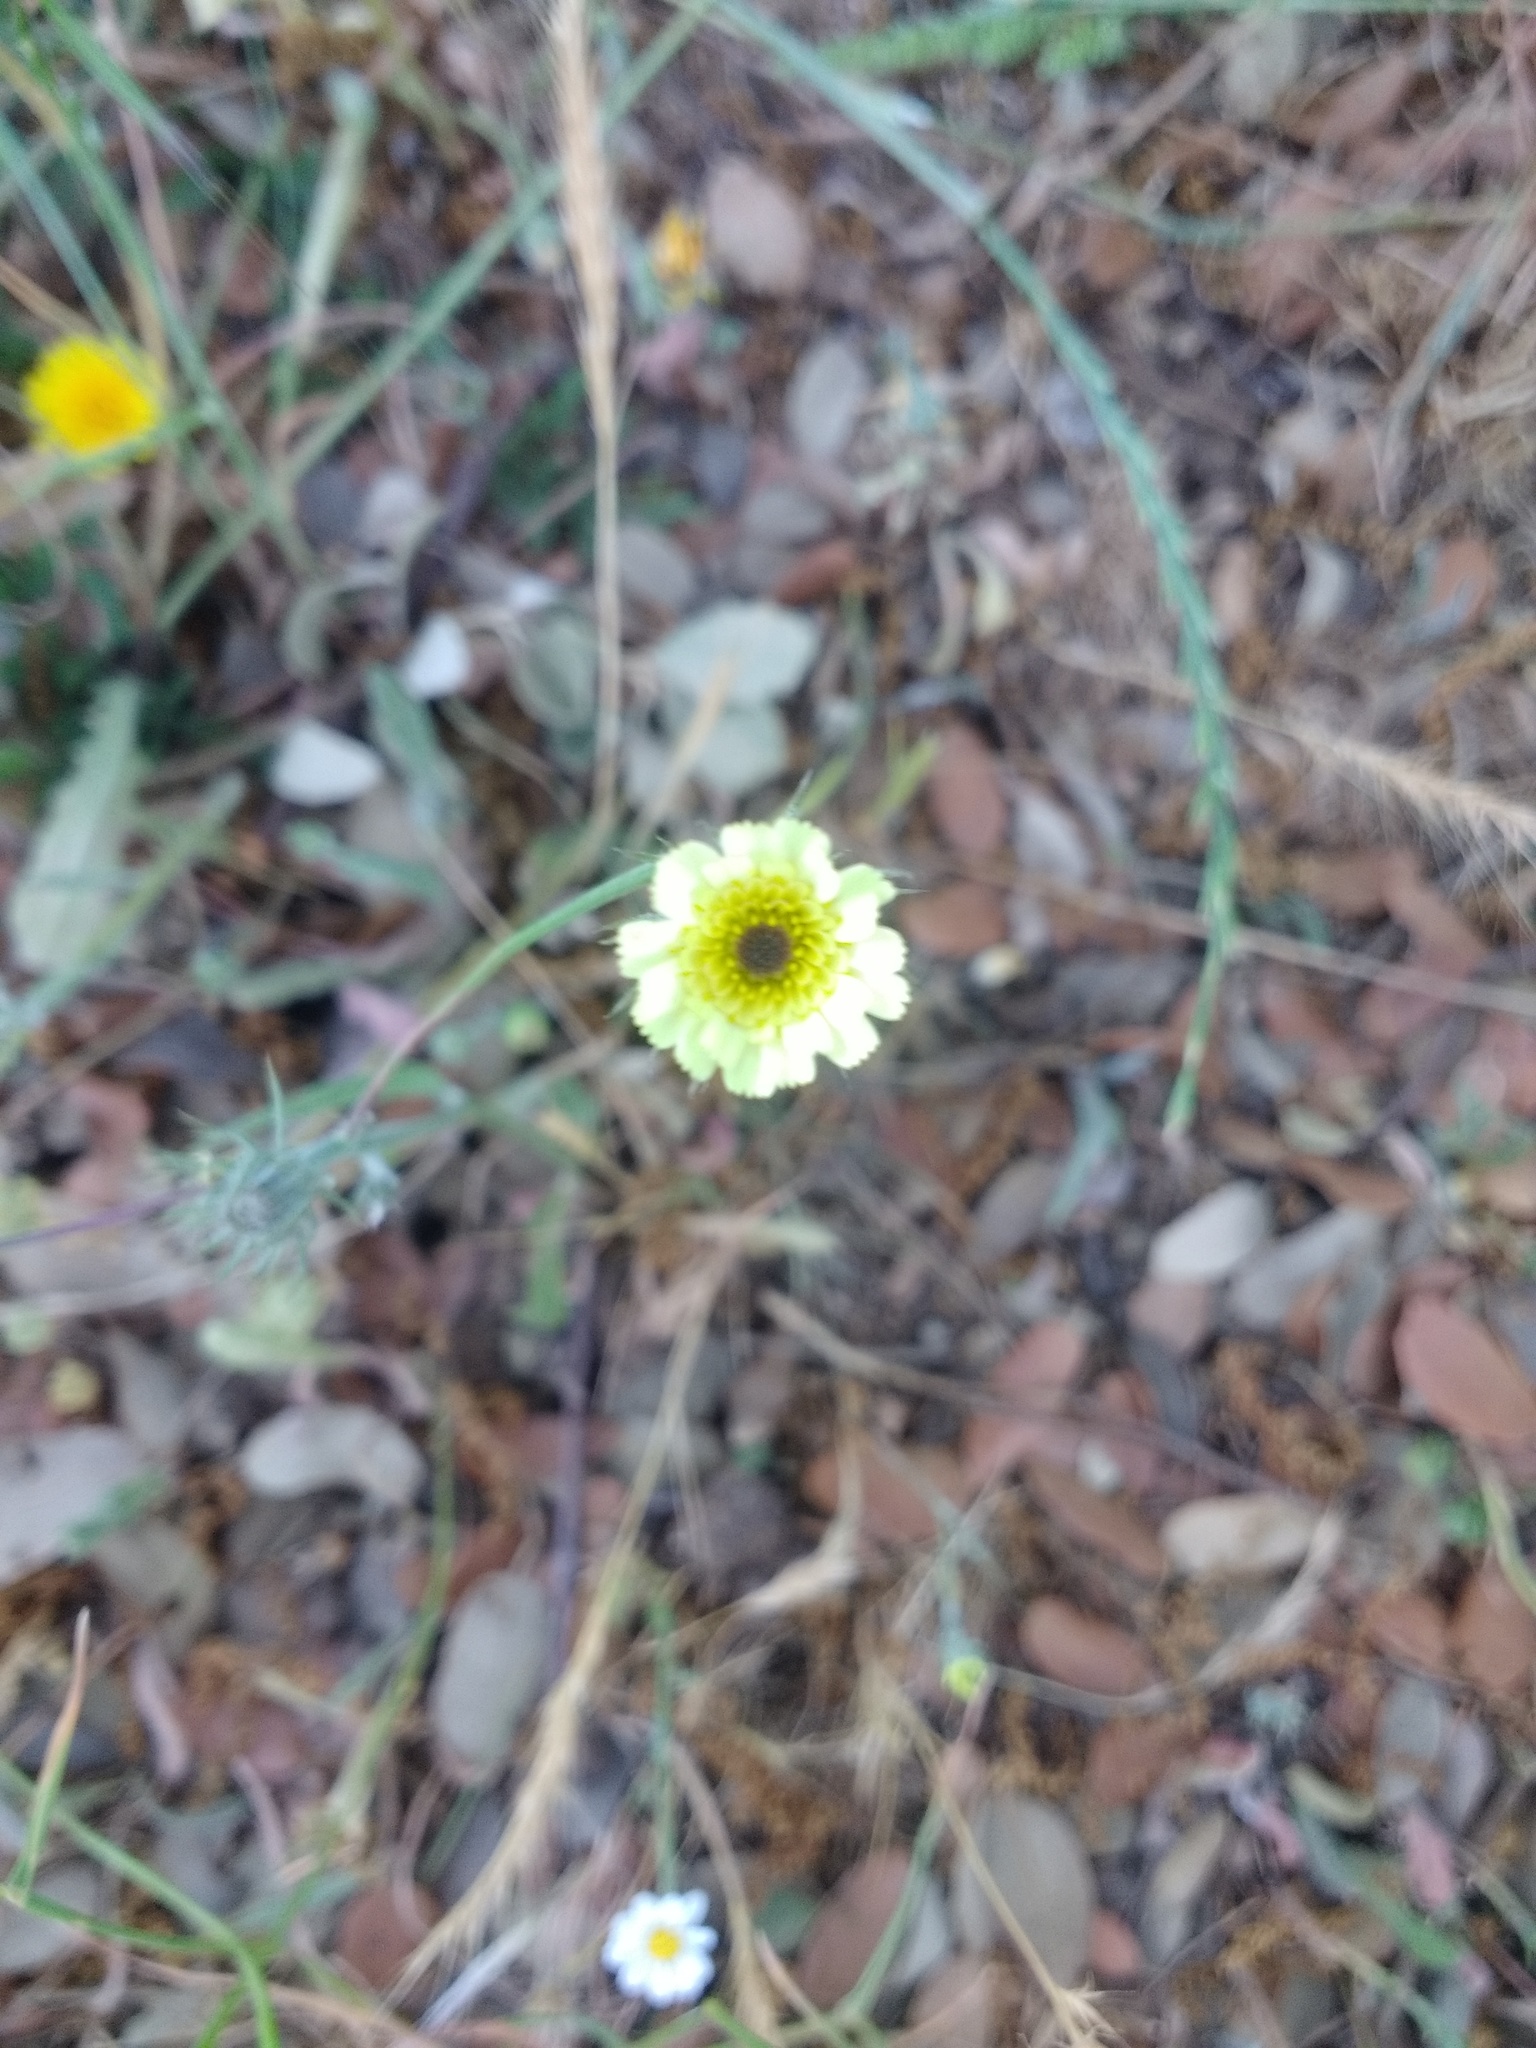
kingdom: Plantae
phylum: Tracheophyta
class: Magnoliopsida
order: Asterales
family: Asteraceae
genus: Tolpis
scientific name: Tolpis barbata
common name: Yellow hawkweed
